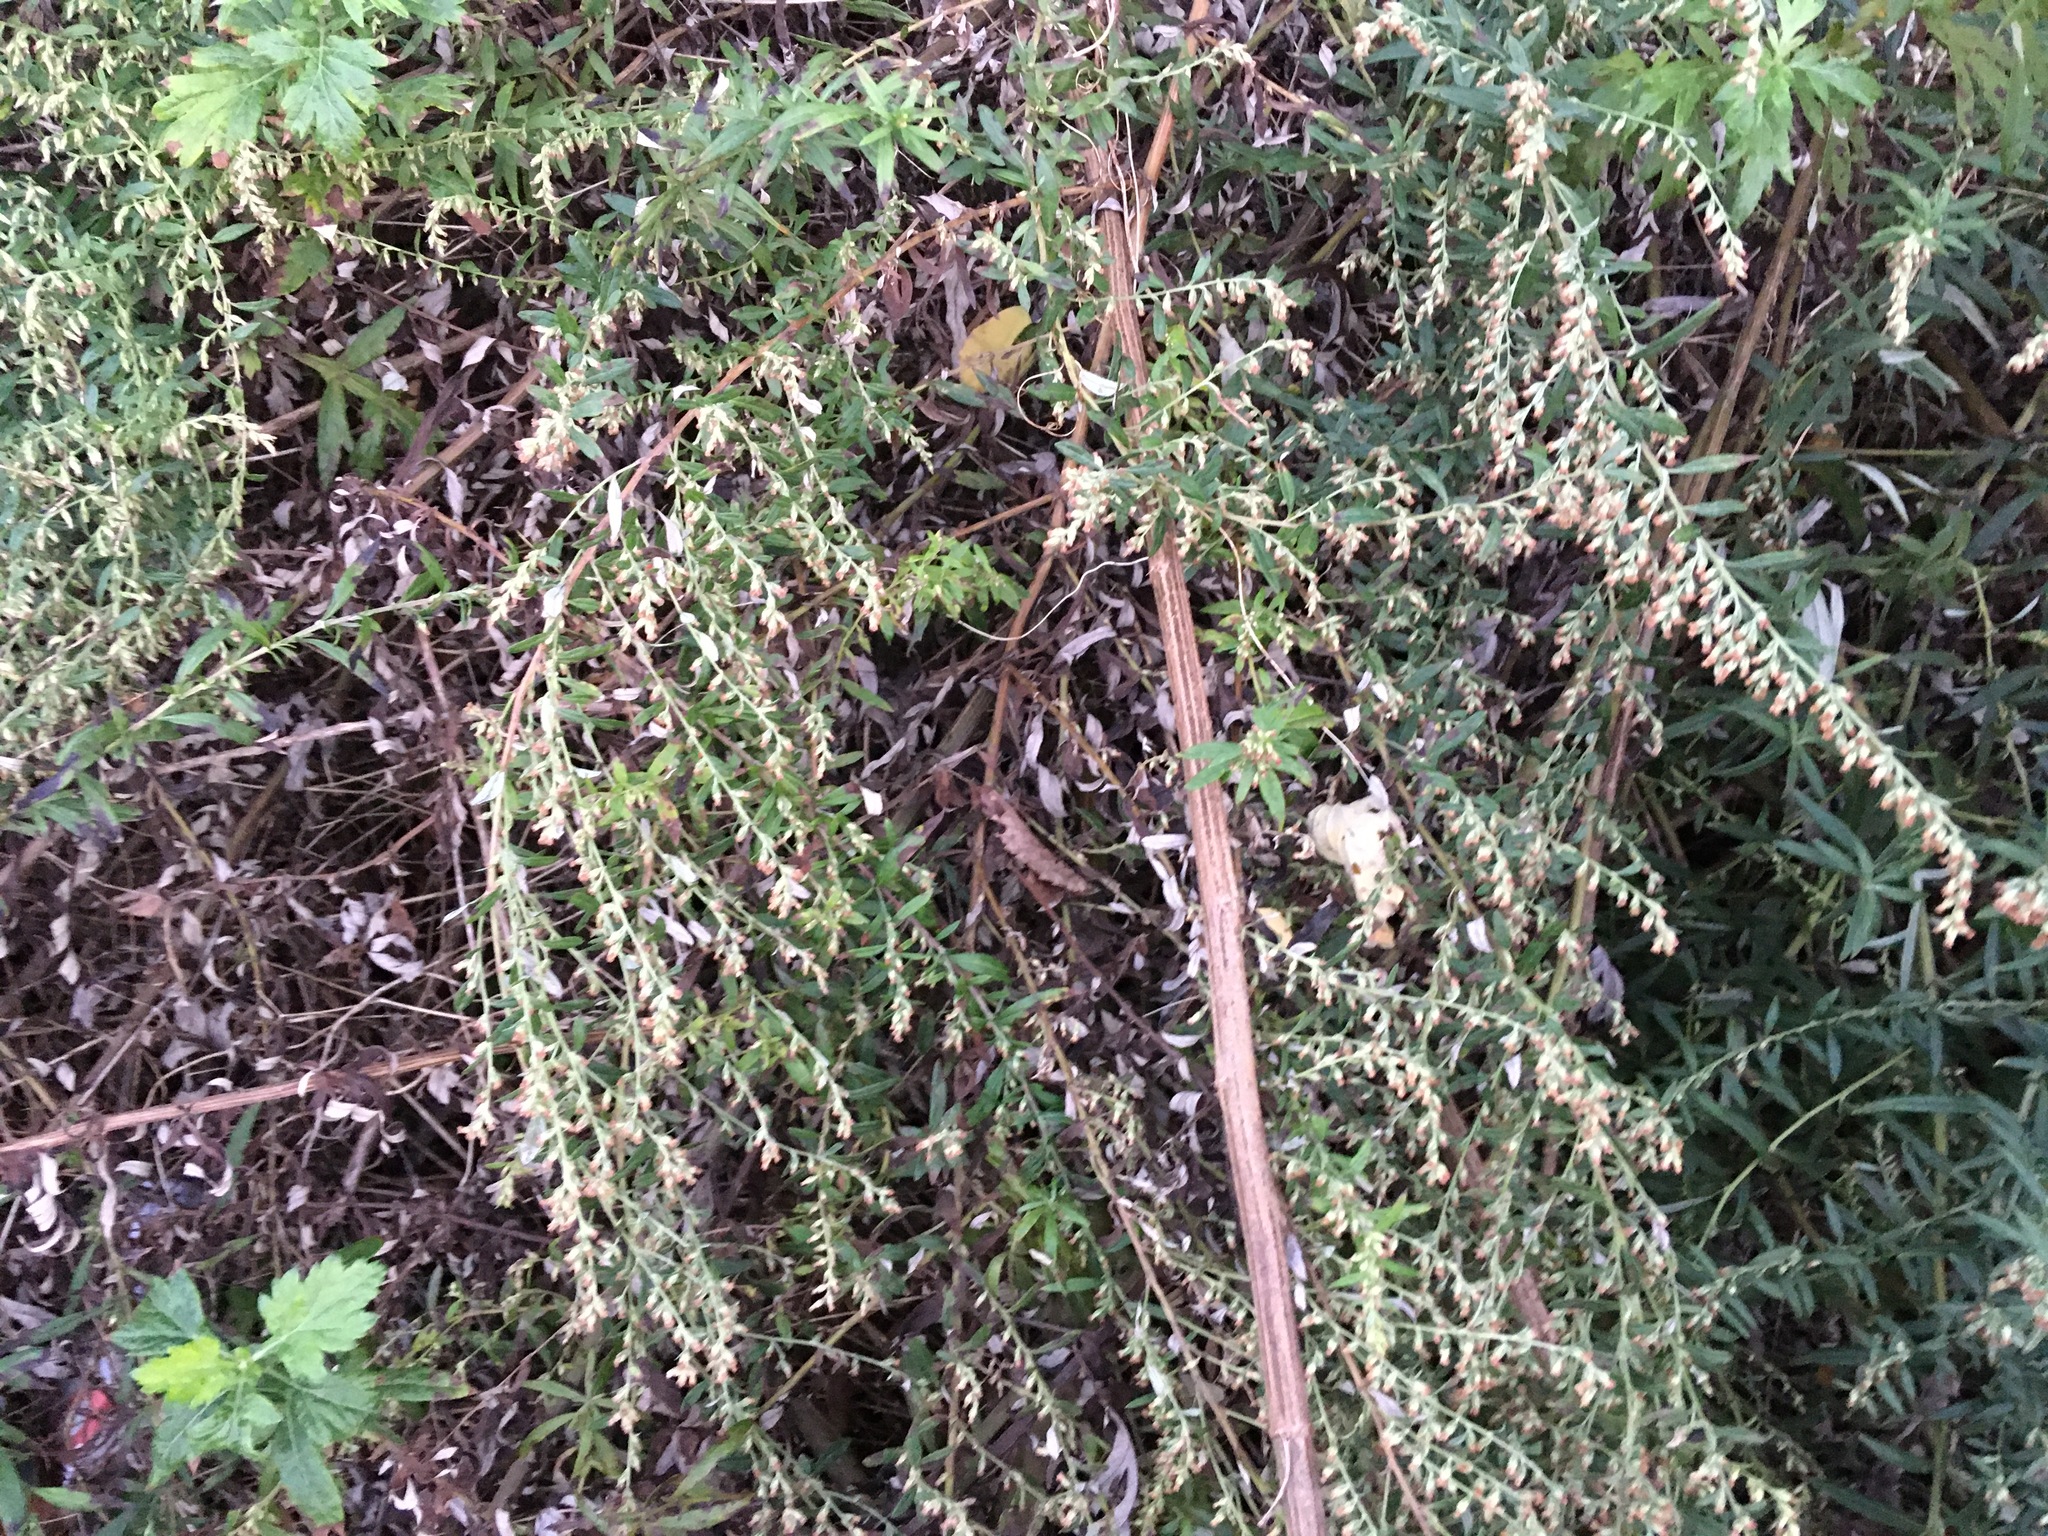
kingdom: Plantae
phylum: Tracheophyta
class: Magnoliopsida
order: Asterales
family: Asteraceae
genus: Artemisia
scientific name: Artemisia vulgaris
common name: Mugwort
